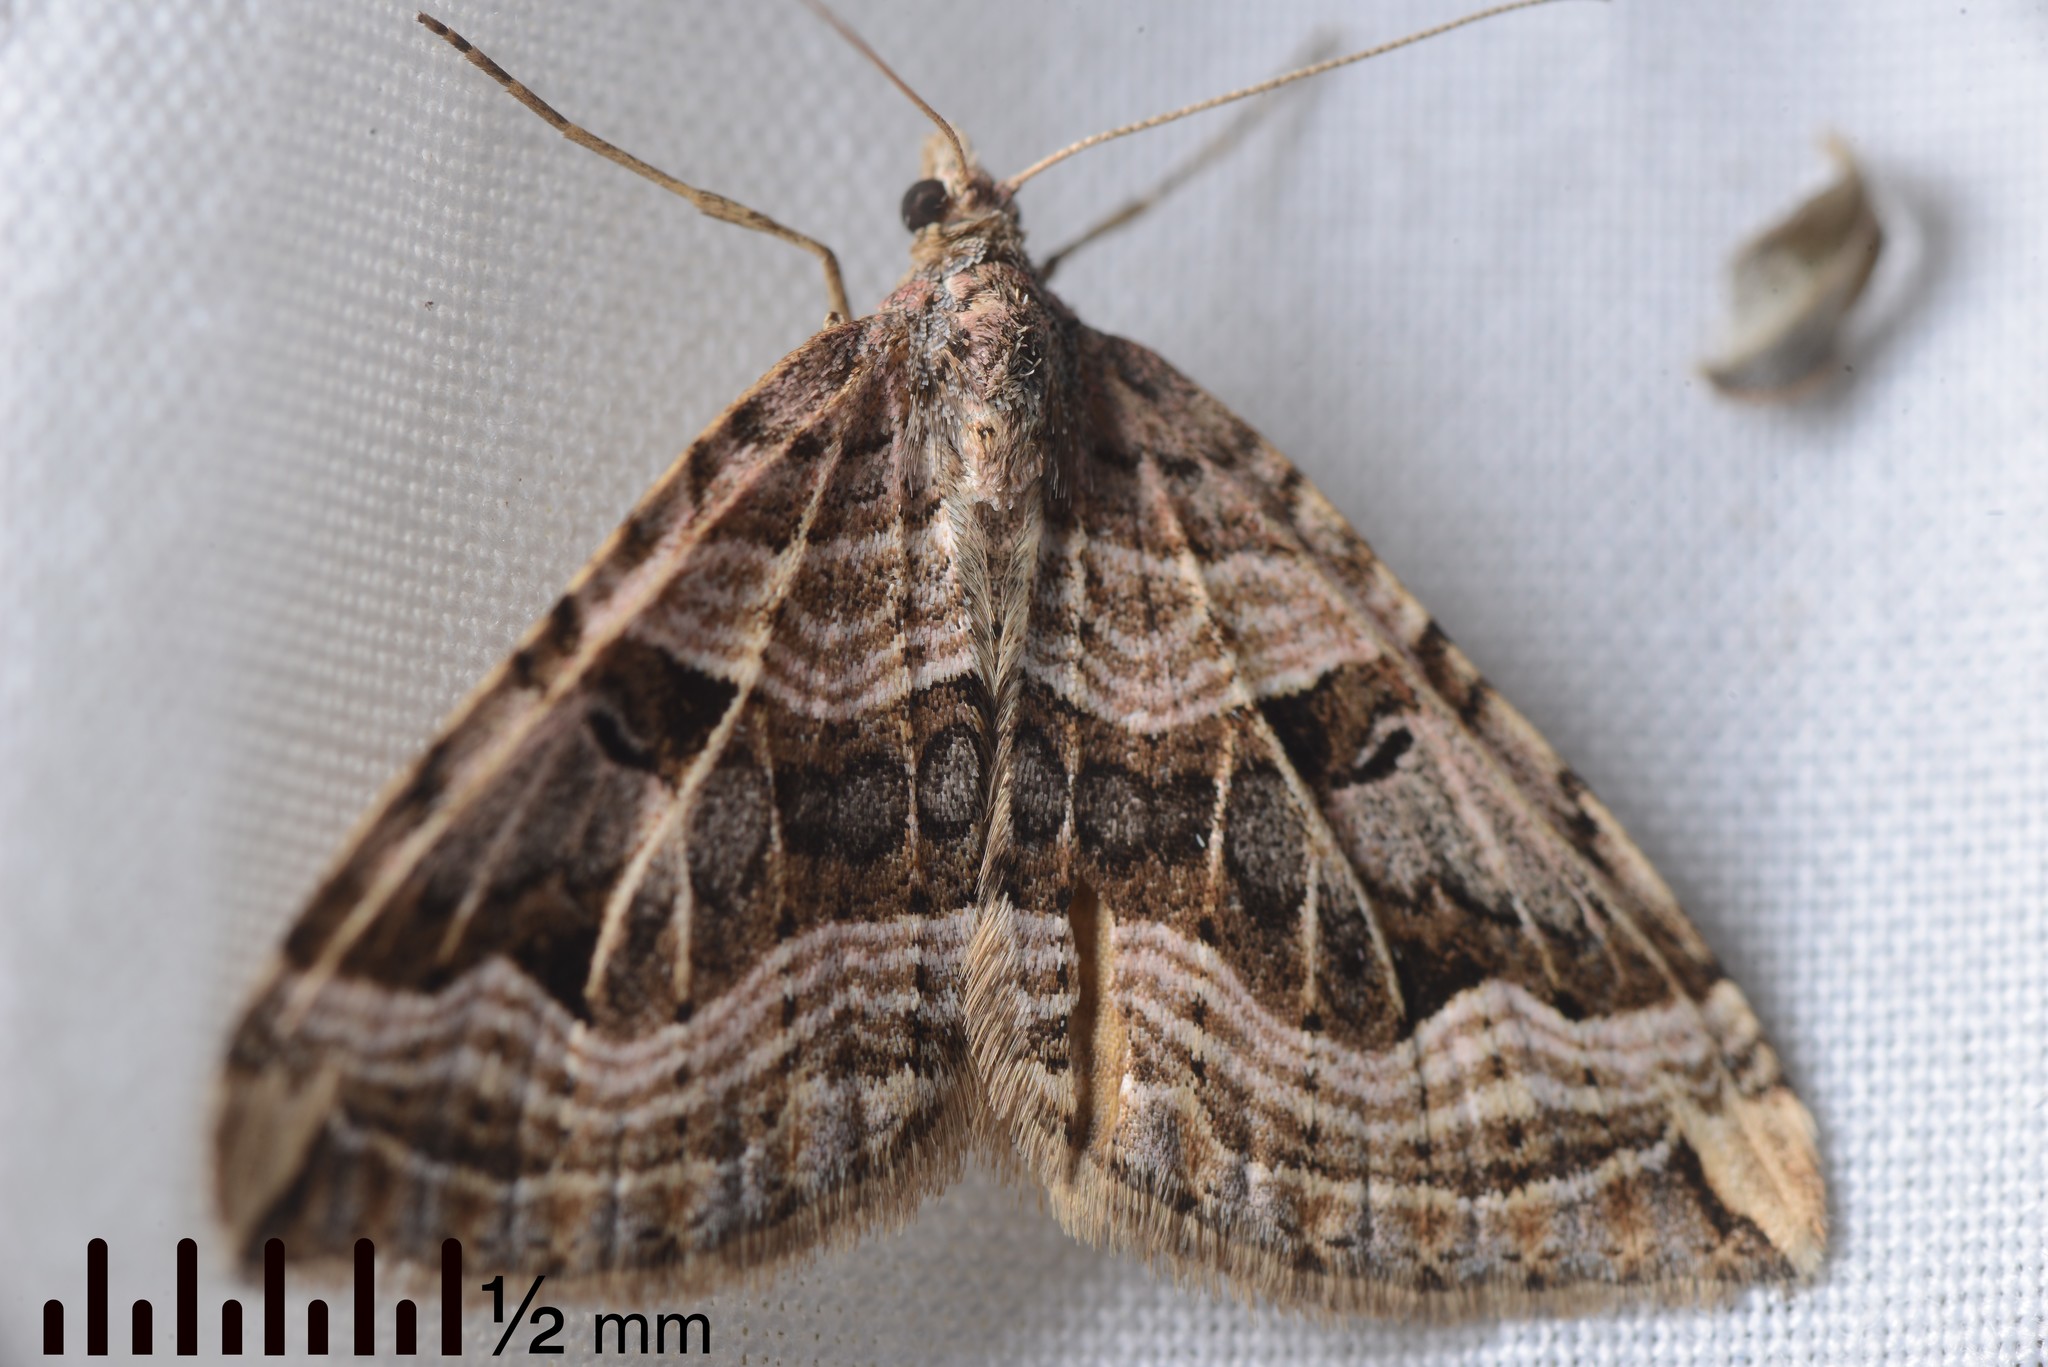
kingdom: Animalia
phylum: Arthropoda
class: Insecta
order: Lepidoptera
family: Geometridae
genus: Xanthorhoe
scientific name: Xanthorhoe semifissata
